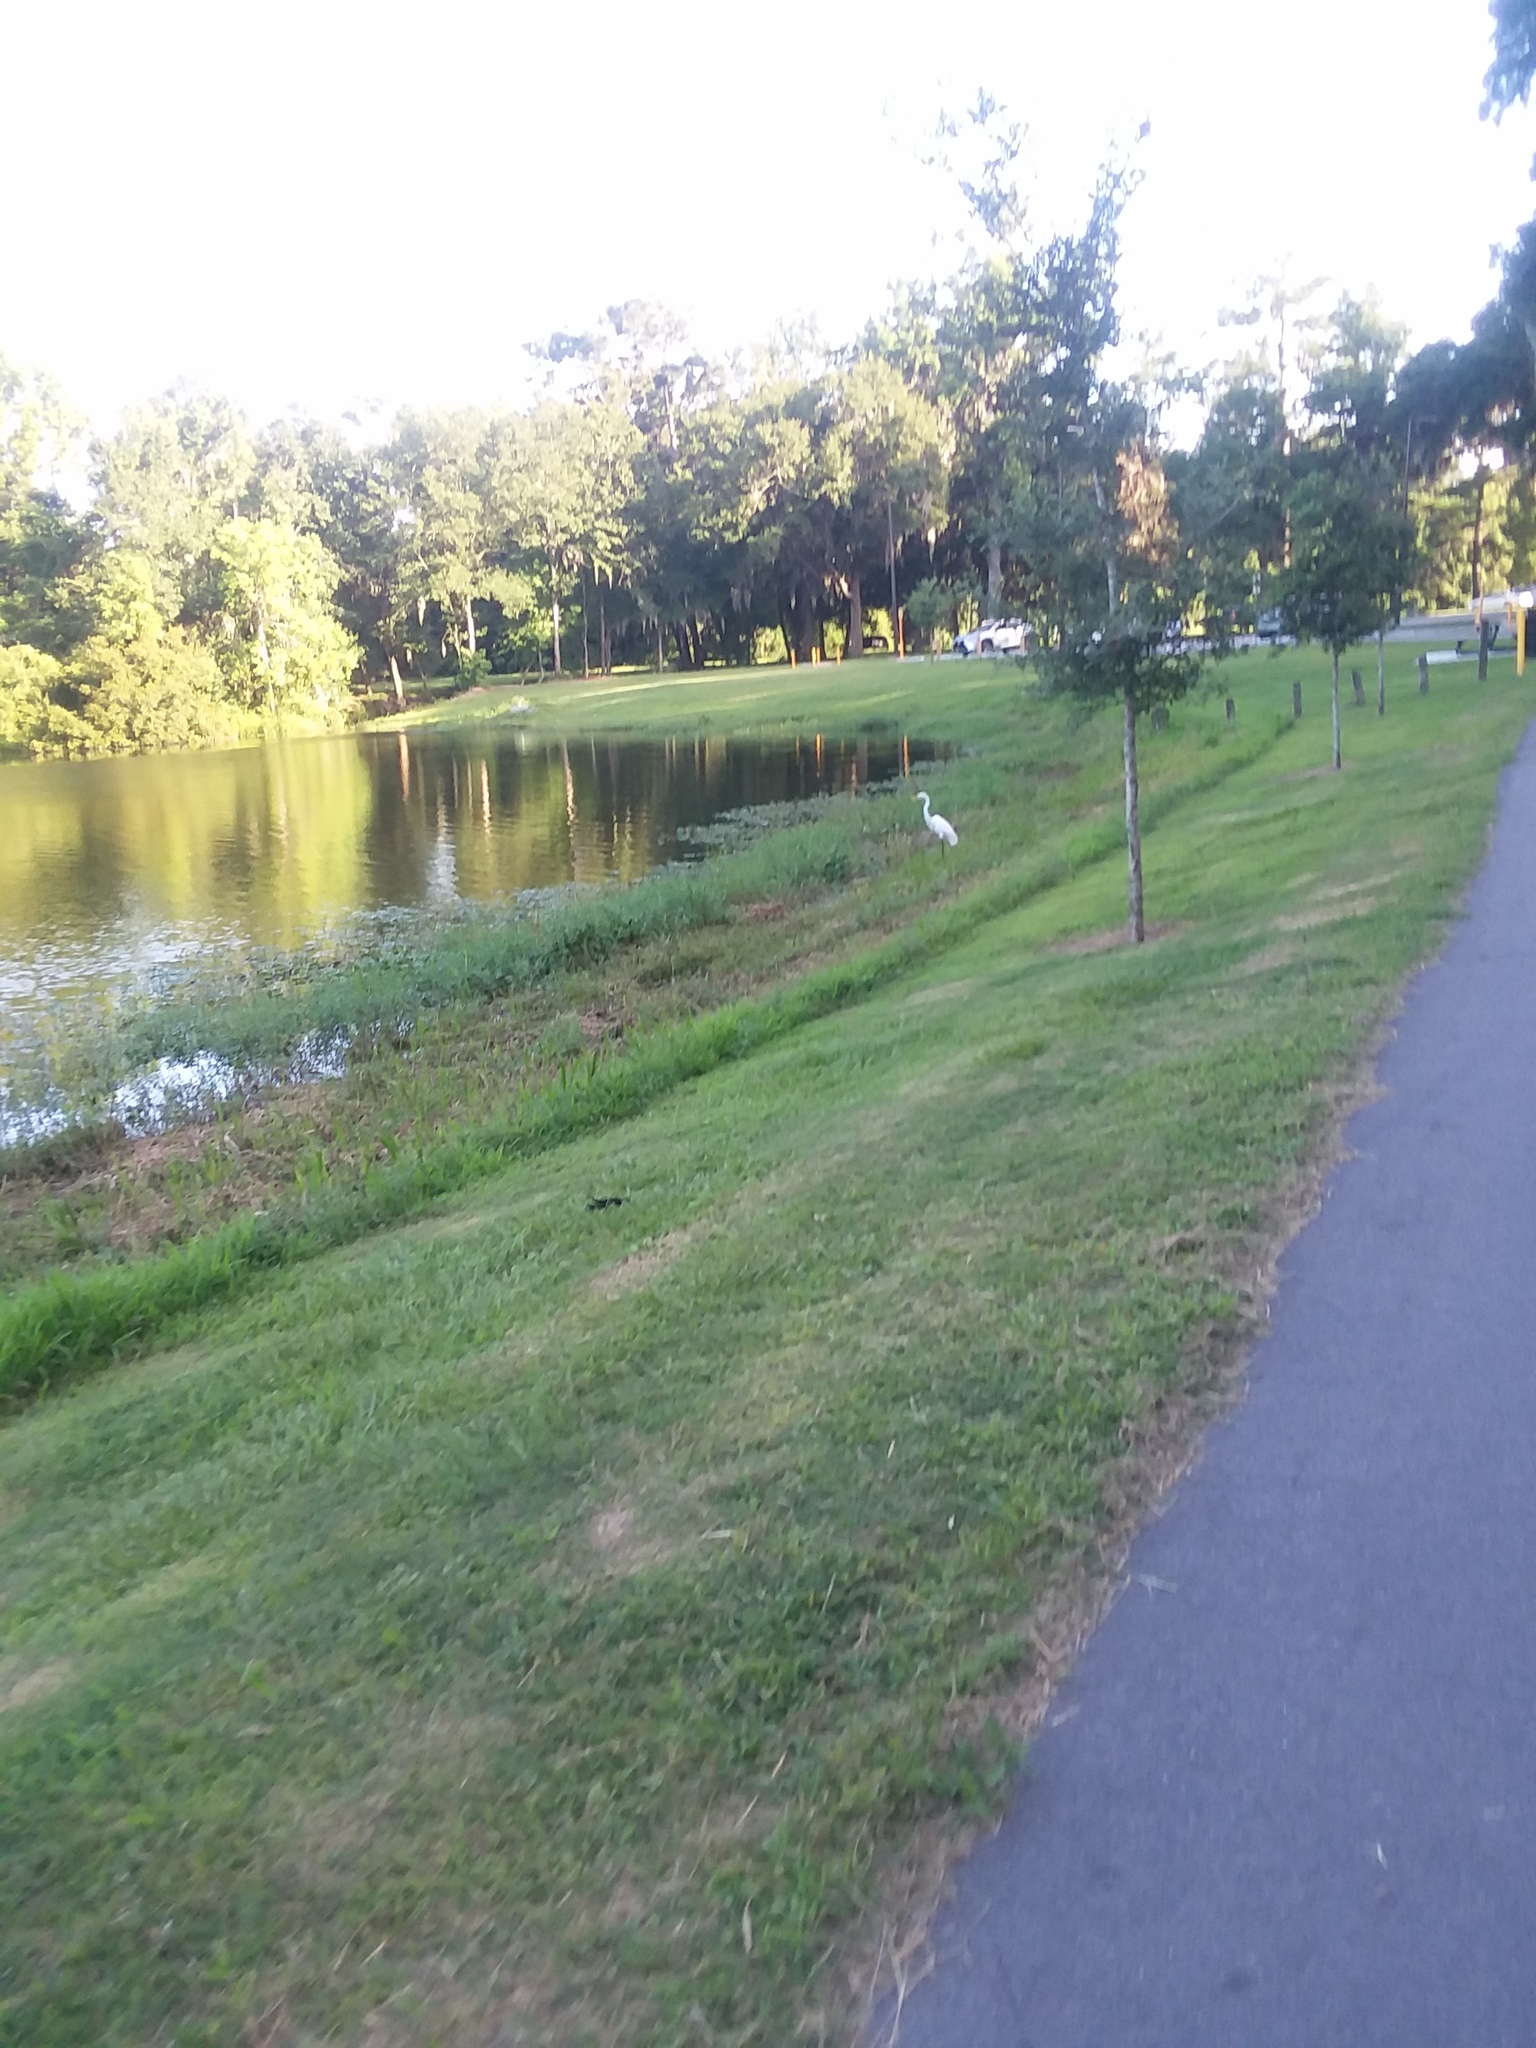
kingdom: Animalia
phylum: Chordata
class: Aves
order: Pelecaniformes
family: Ardeidae
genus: Ardea
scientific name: Ardea alba
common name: Great egret
